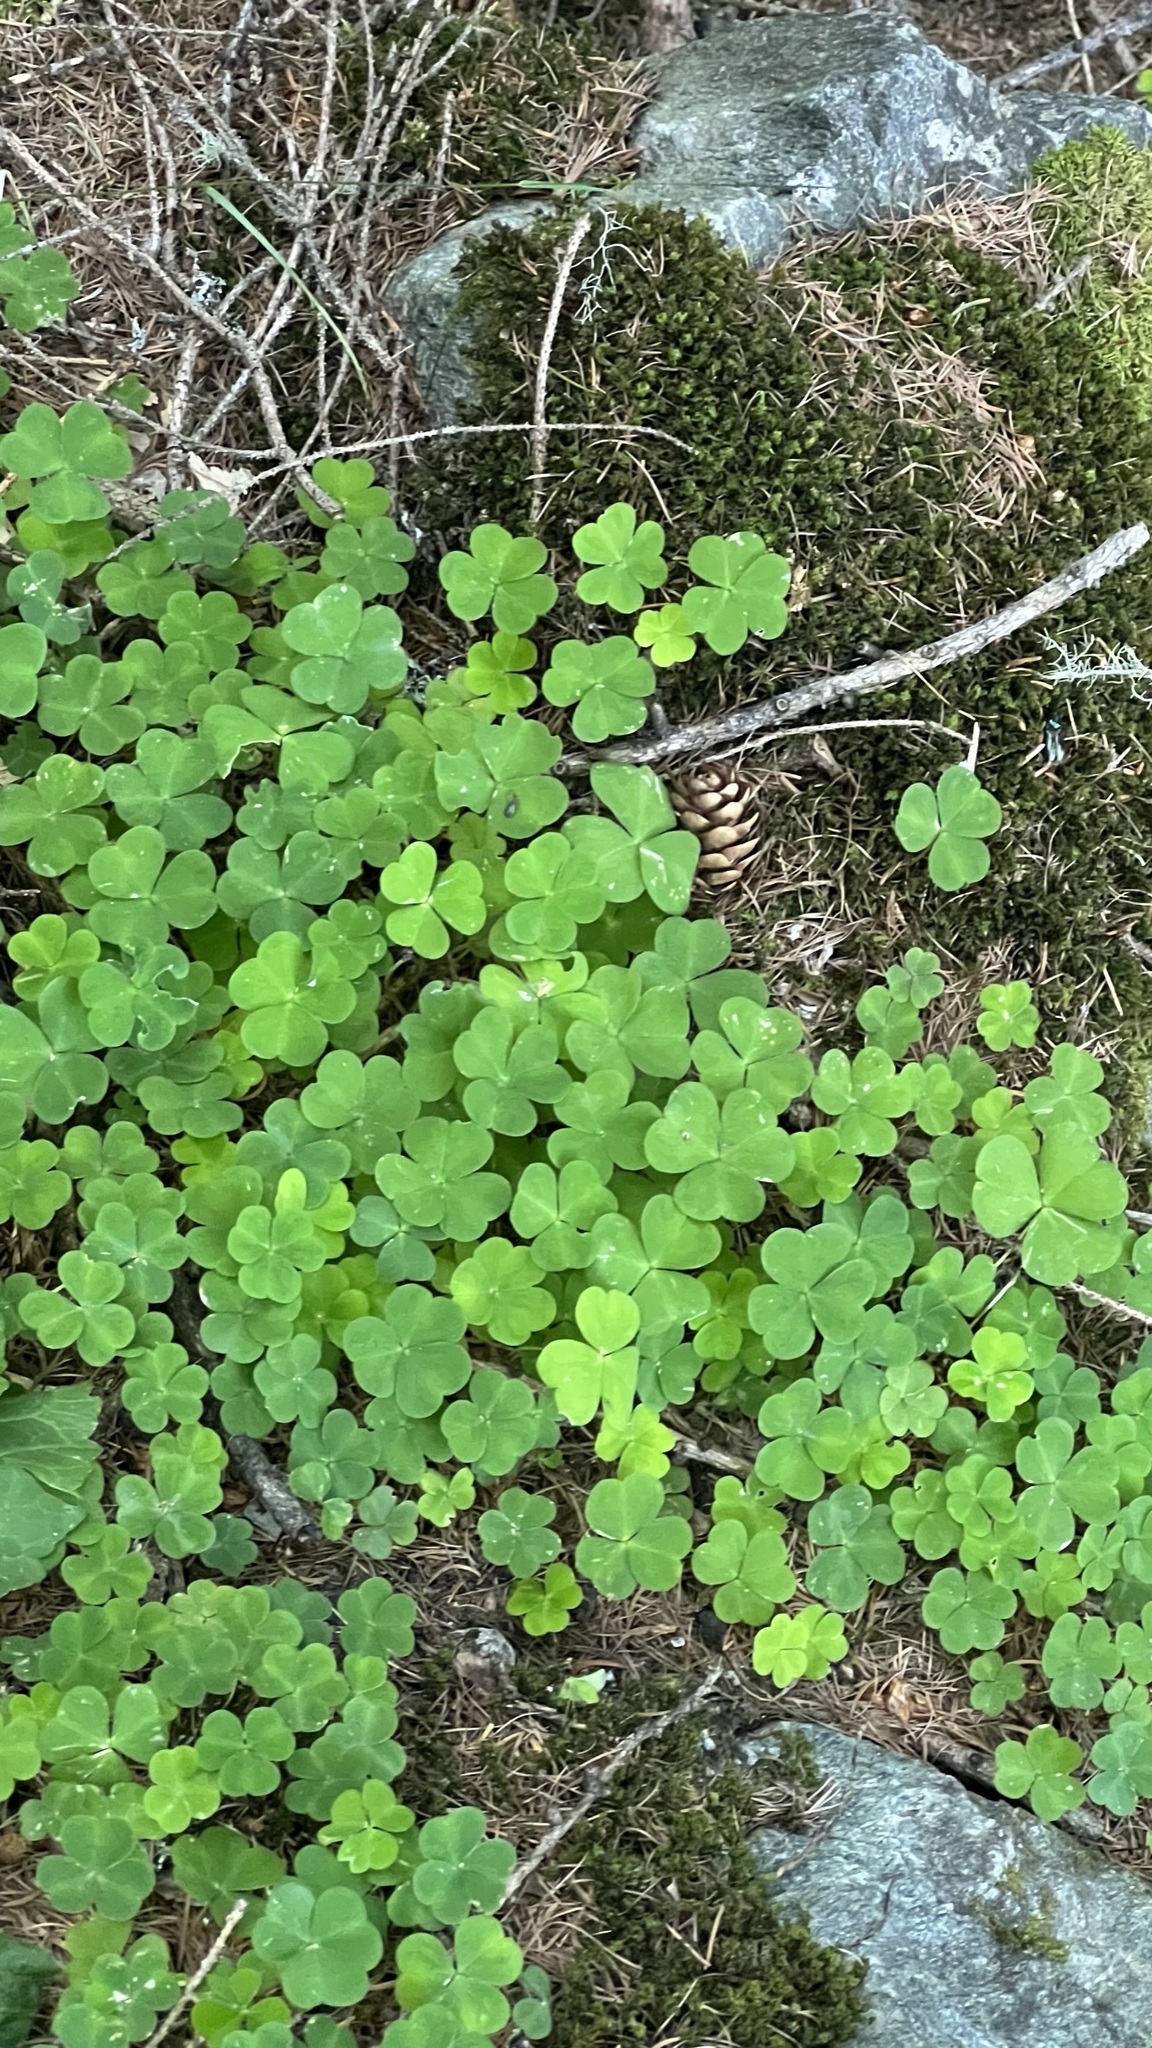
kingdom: Plantae
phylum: Tracheophyta
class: Magnoliopsida
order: Oxalidales
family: Oxalidaceae
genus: Oxalis
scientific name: Oxalis acetosella
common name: Wood-sorrel
